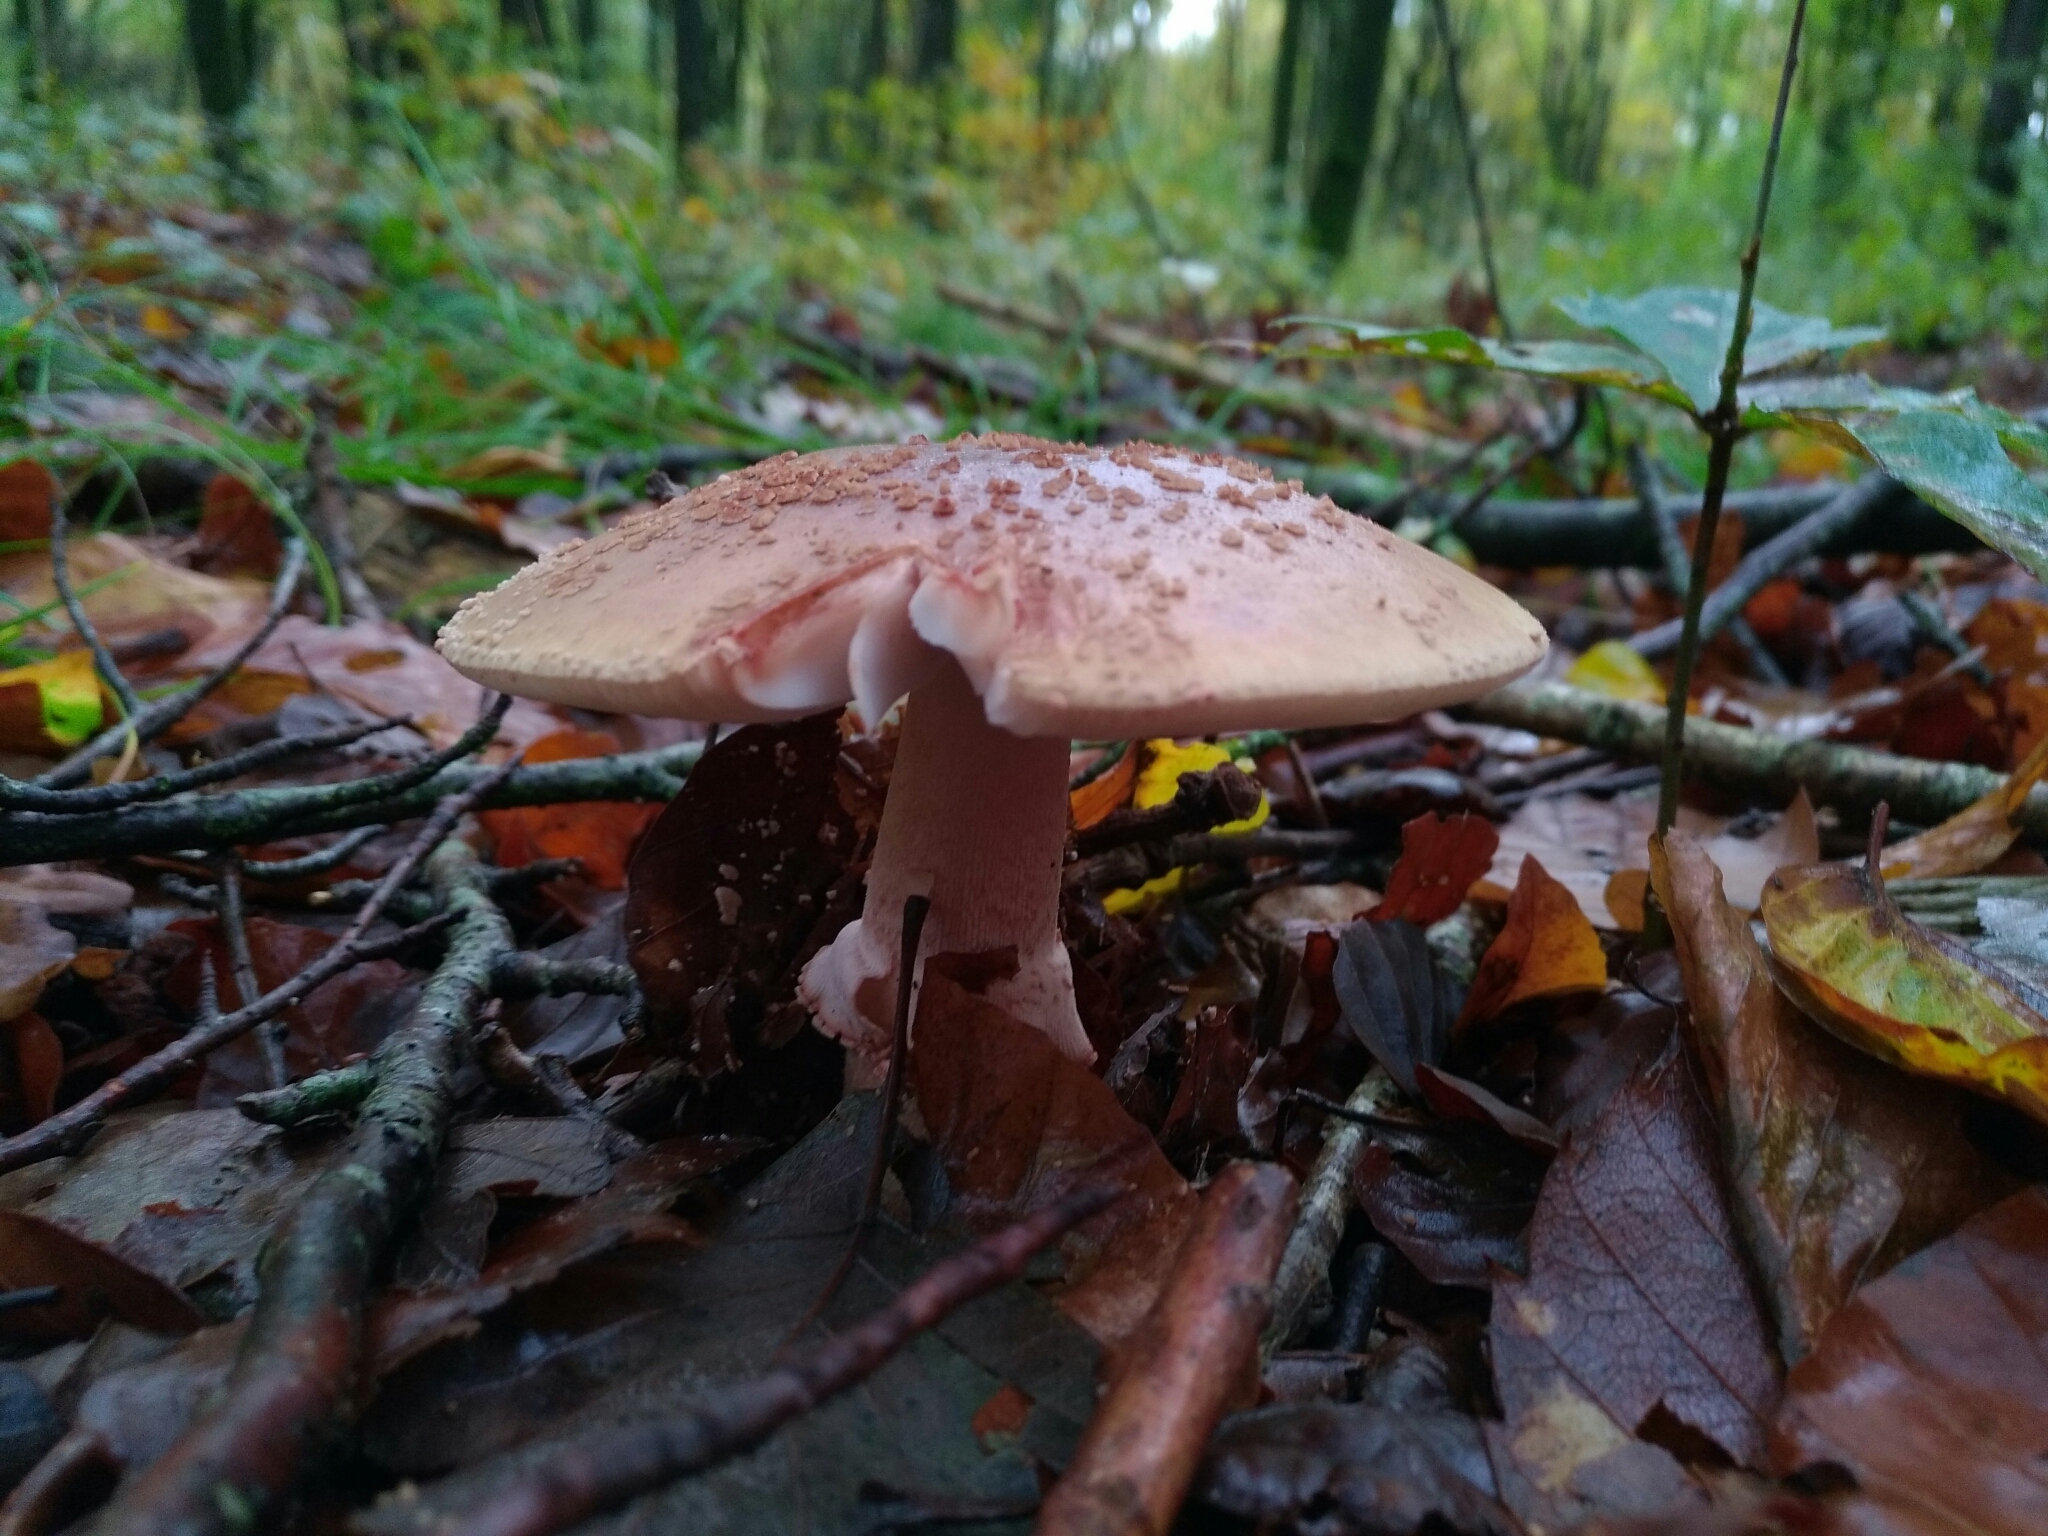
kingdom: Fungi
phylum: Basidiomycota
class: Agaricomycetes
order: Agaricales
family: Amanitaceae
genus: Amanita
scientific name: Amanita rubescens
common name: Blusher
